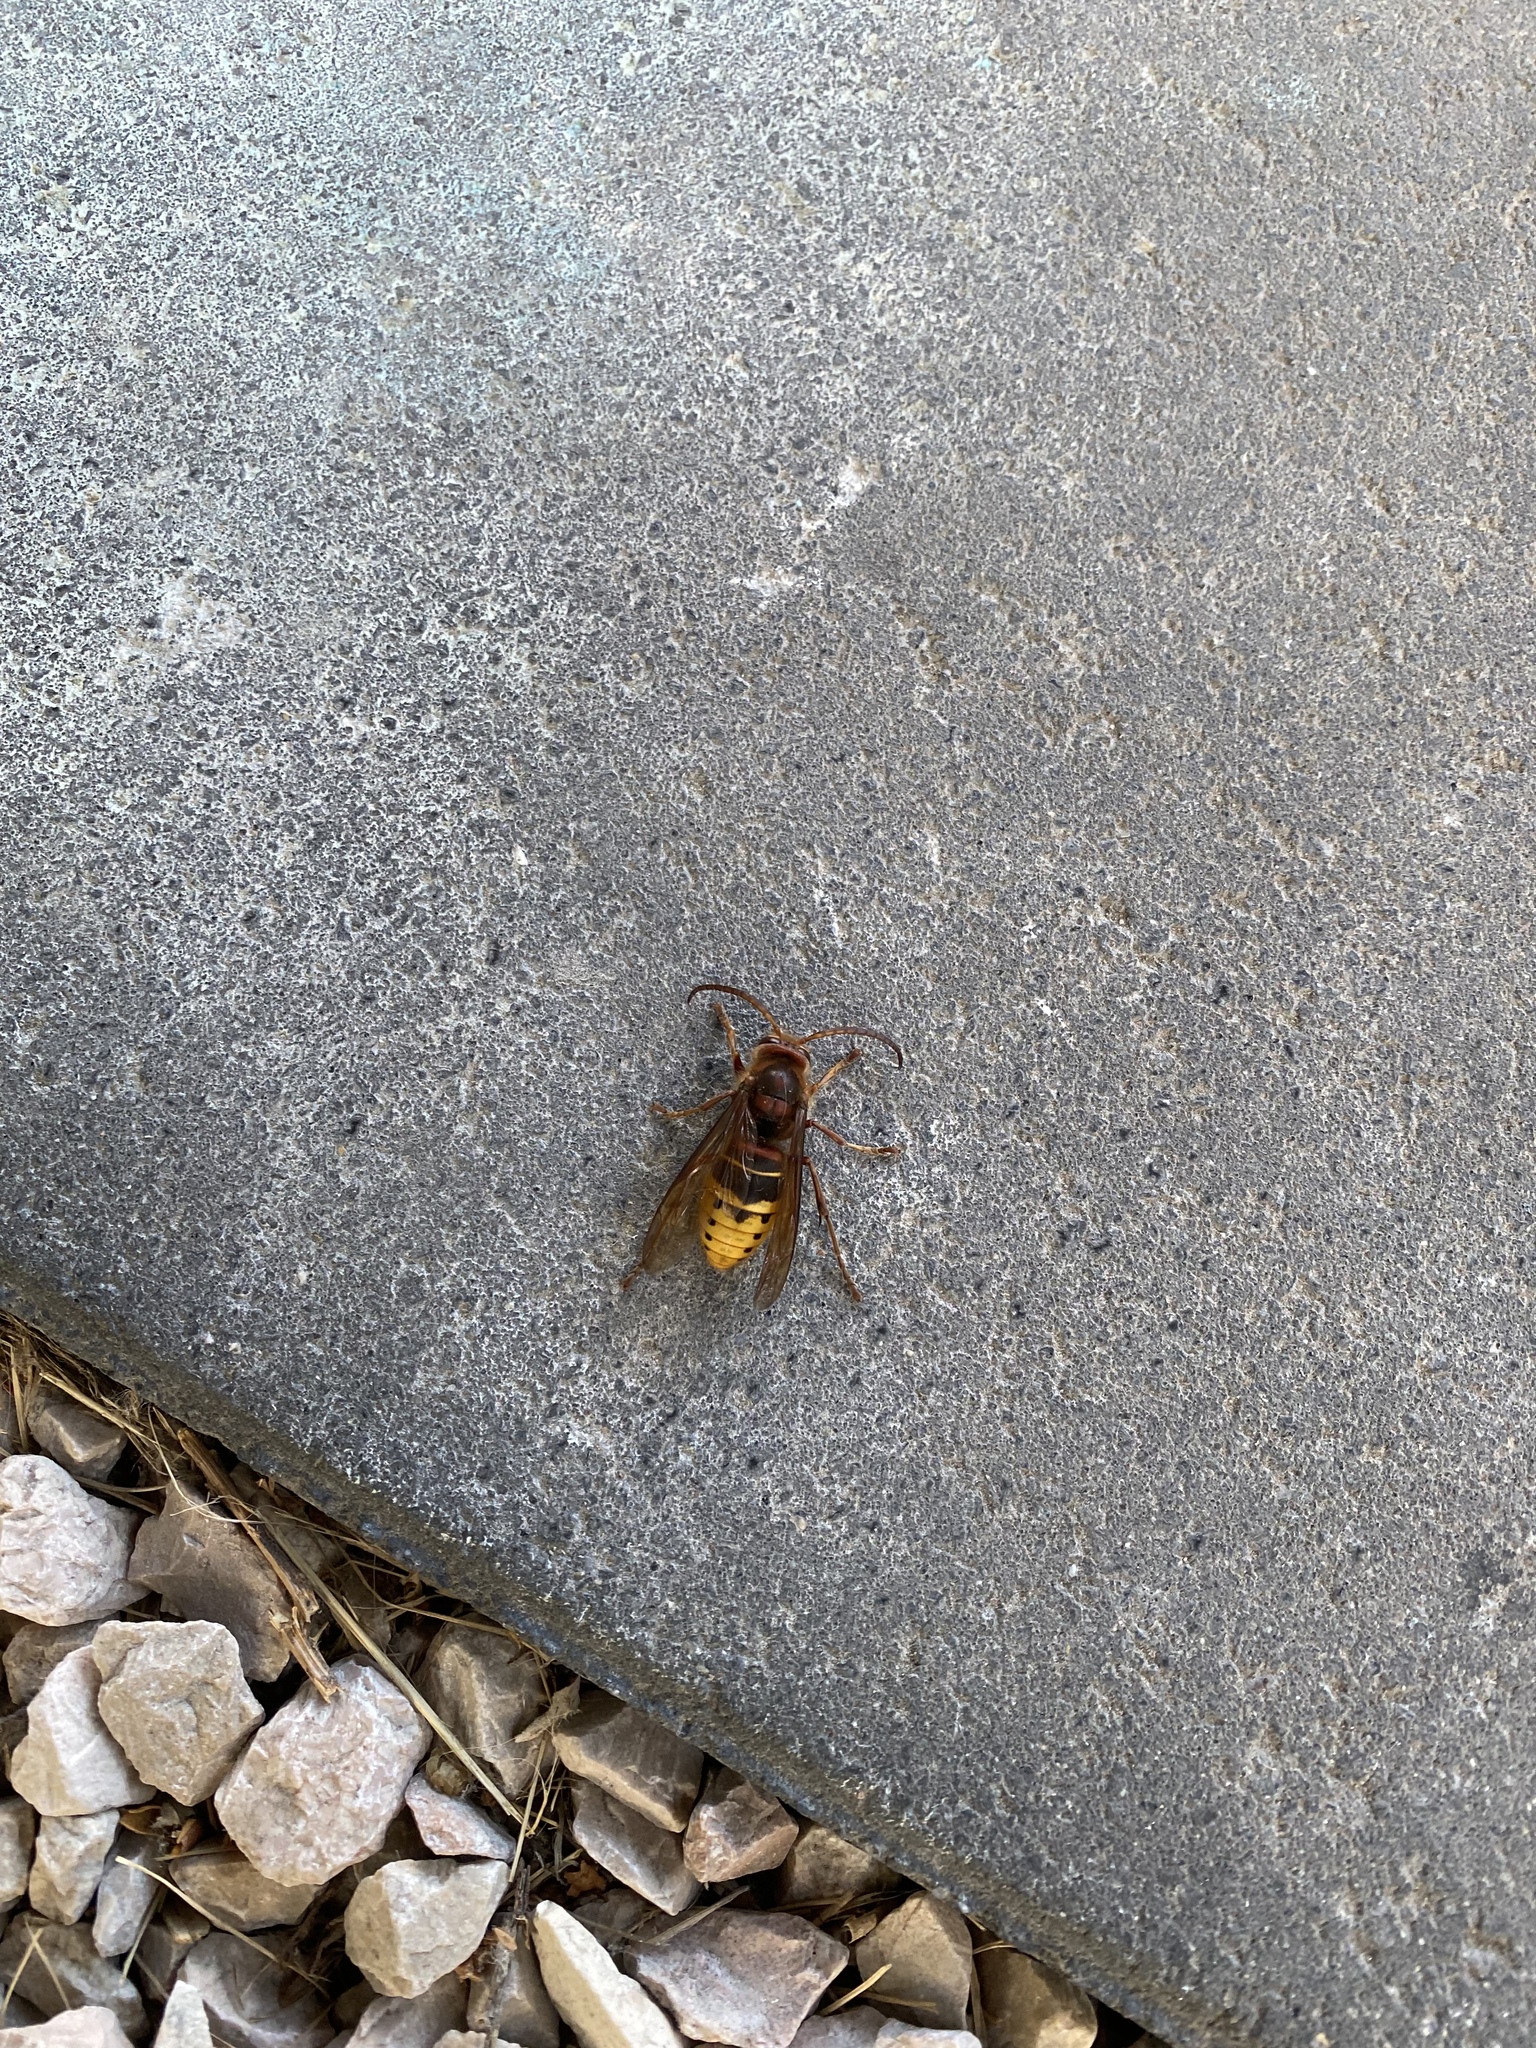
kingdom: Animalia
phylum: Arthropoda
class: Insecta
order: Hymenoptera
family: Vespidae
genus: Vespa
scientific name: Vespa crabro
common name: Hornet
